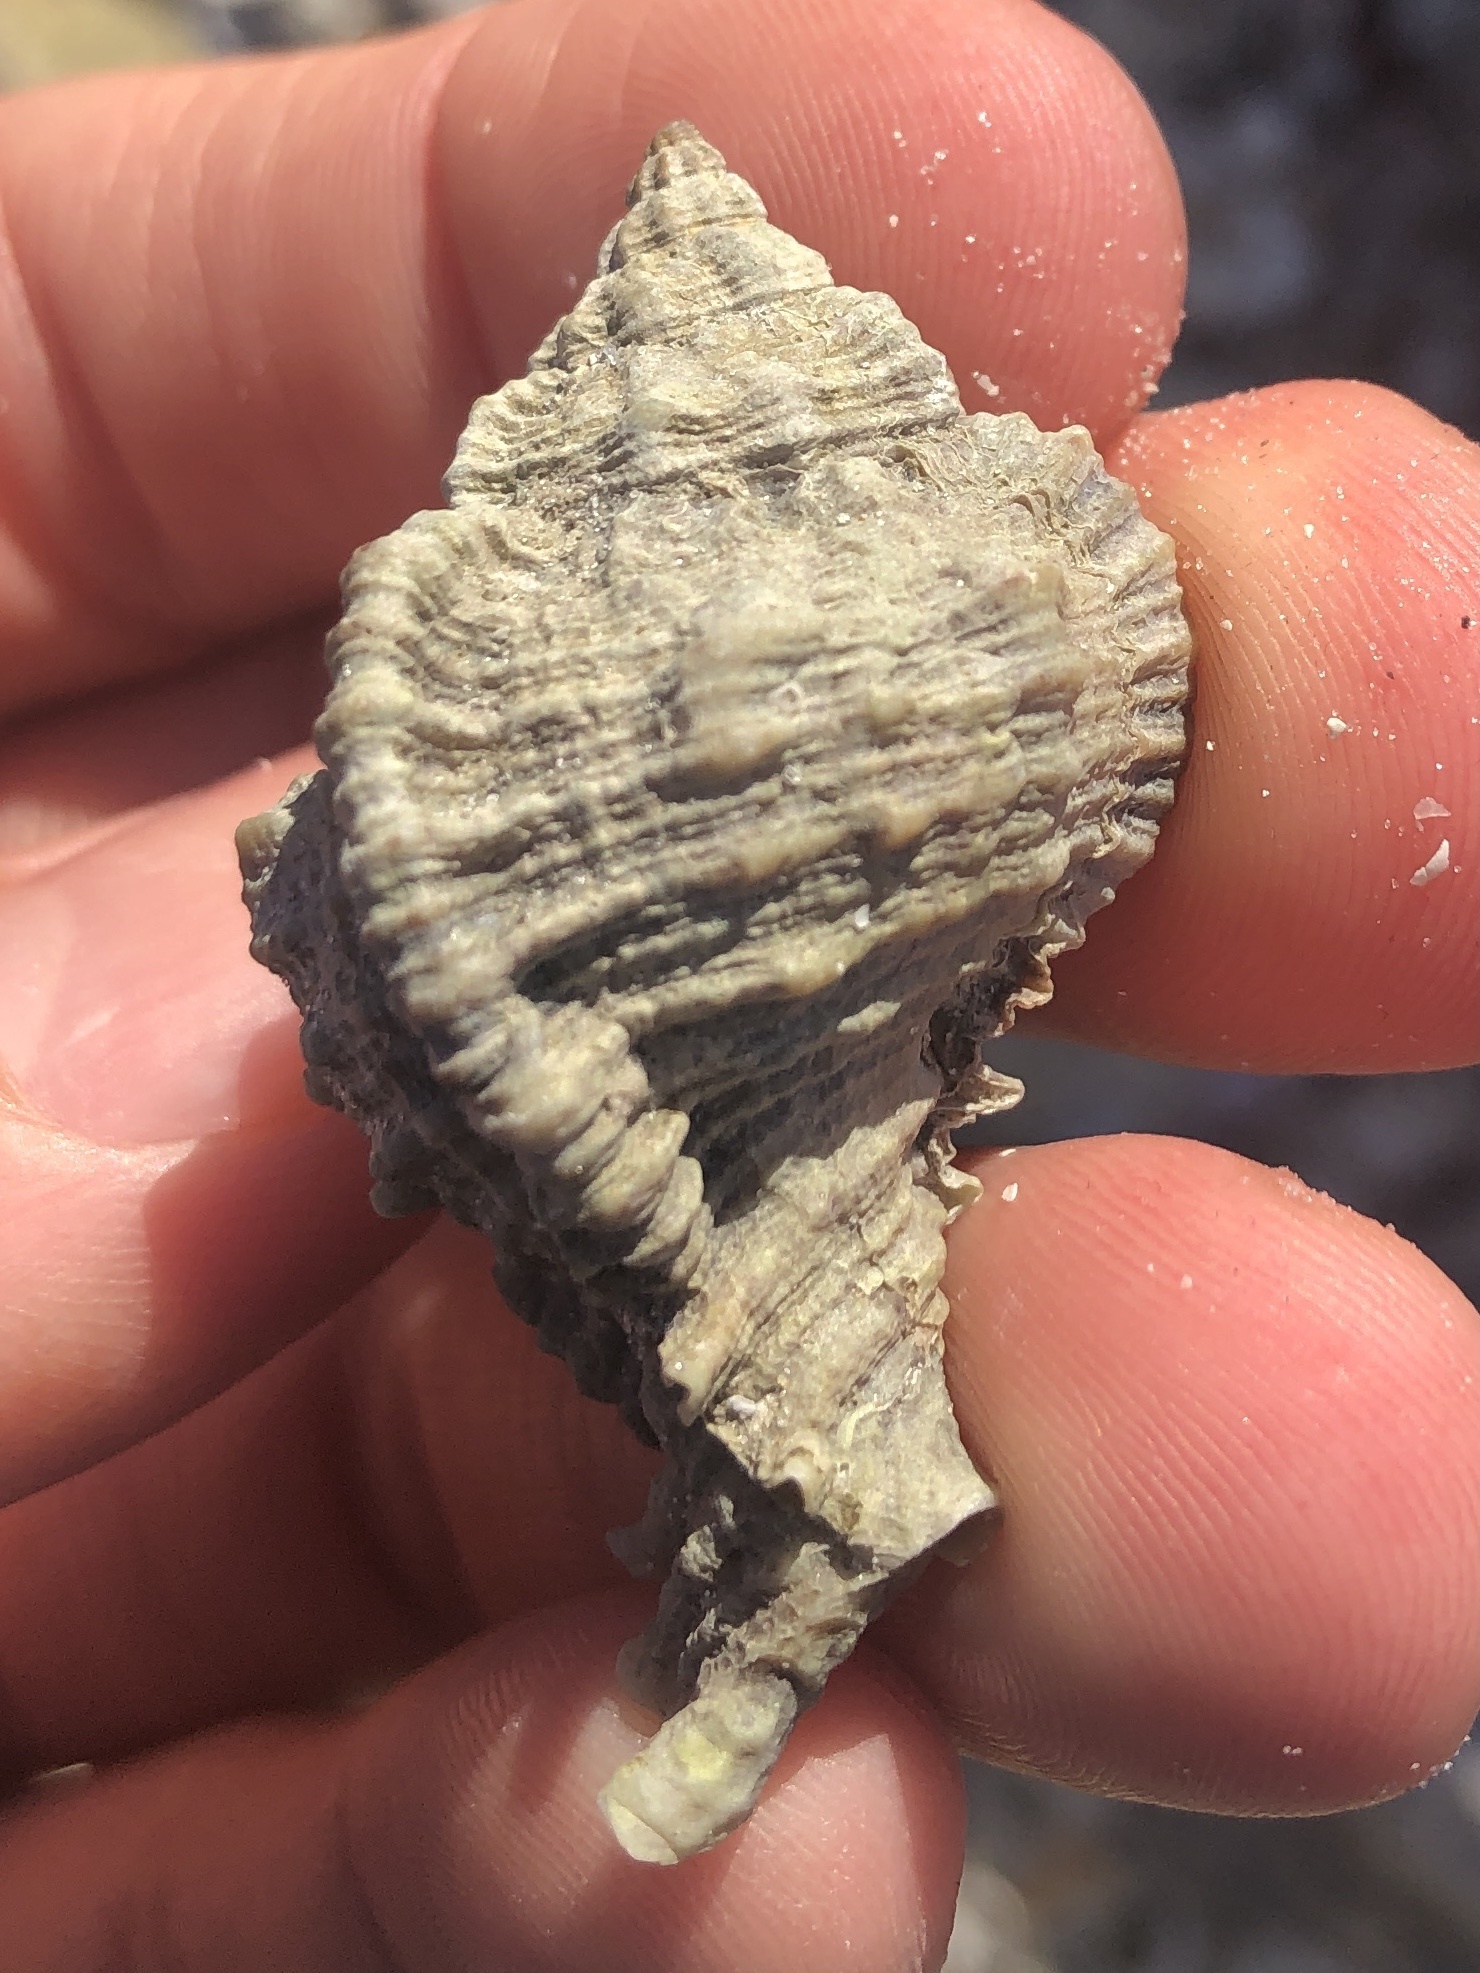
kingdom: Animalia
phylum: Mollusca
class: Gastropoda
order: Neogastropoda
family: Muricidae
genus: Phyllonotus
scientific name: Phyllonotus pomum
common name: Apple murex
